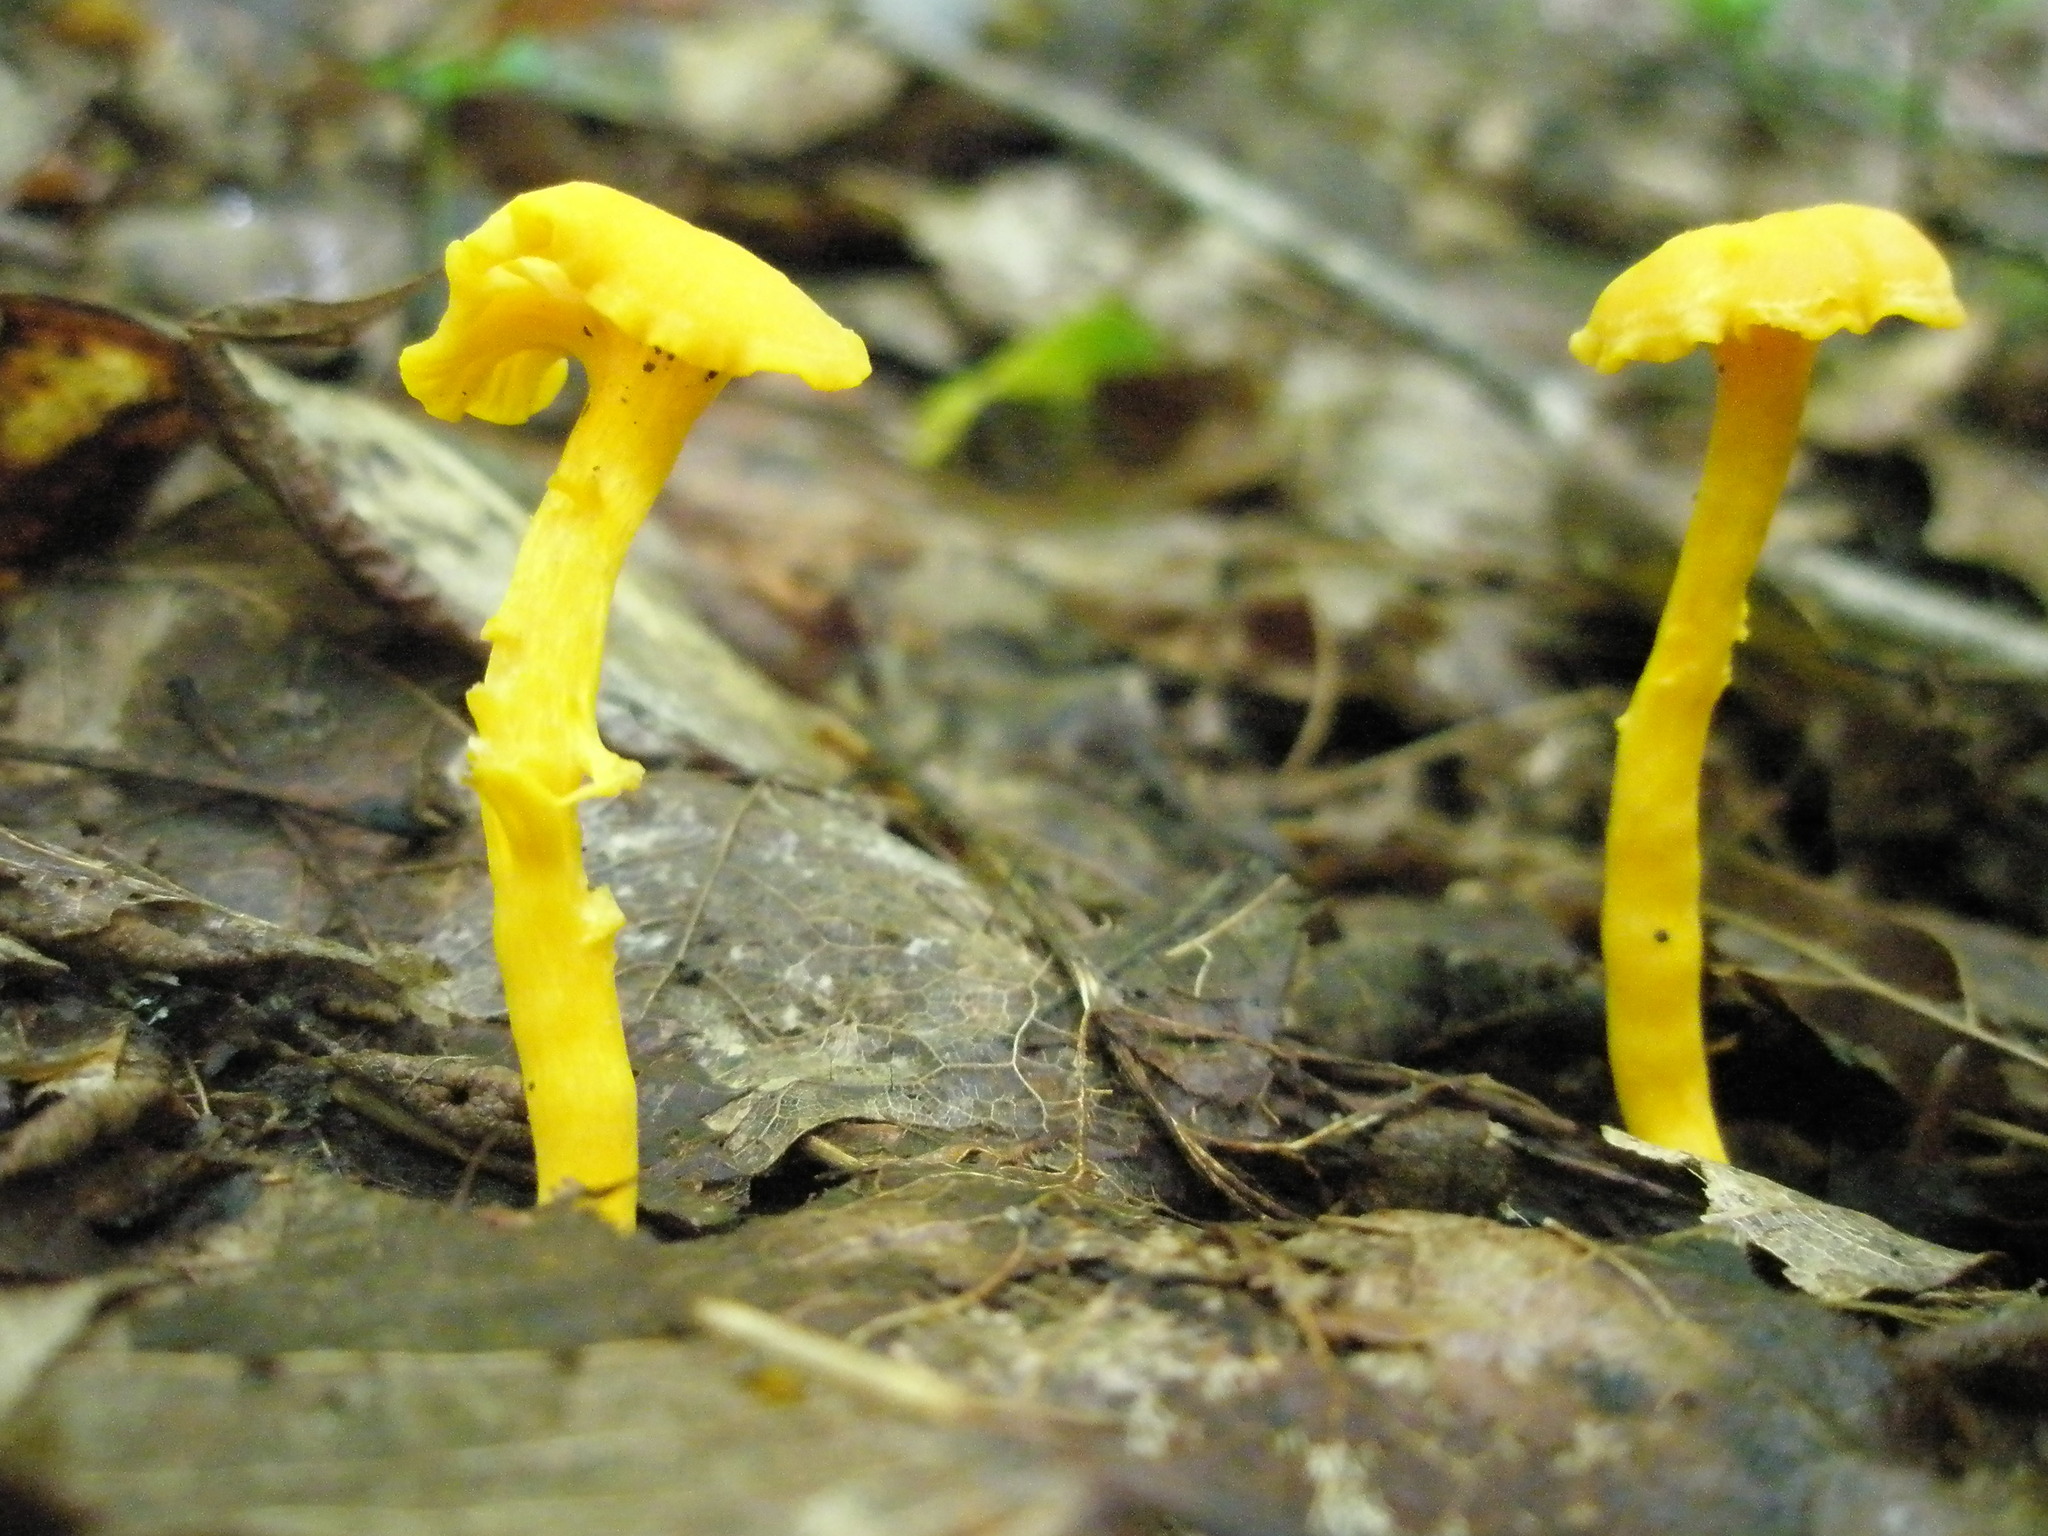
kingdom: Fungi
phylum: Basidiomycota
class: Agaricomycetes
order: Cantharellales
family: Hydnaceae
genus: Cantharellus
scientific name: Cantharellus minor
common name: Small chanterelle
